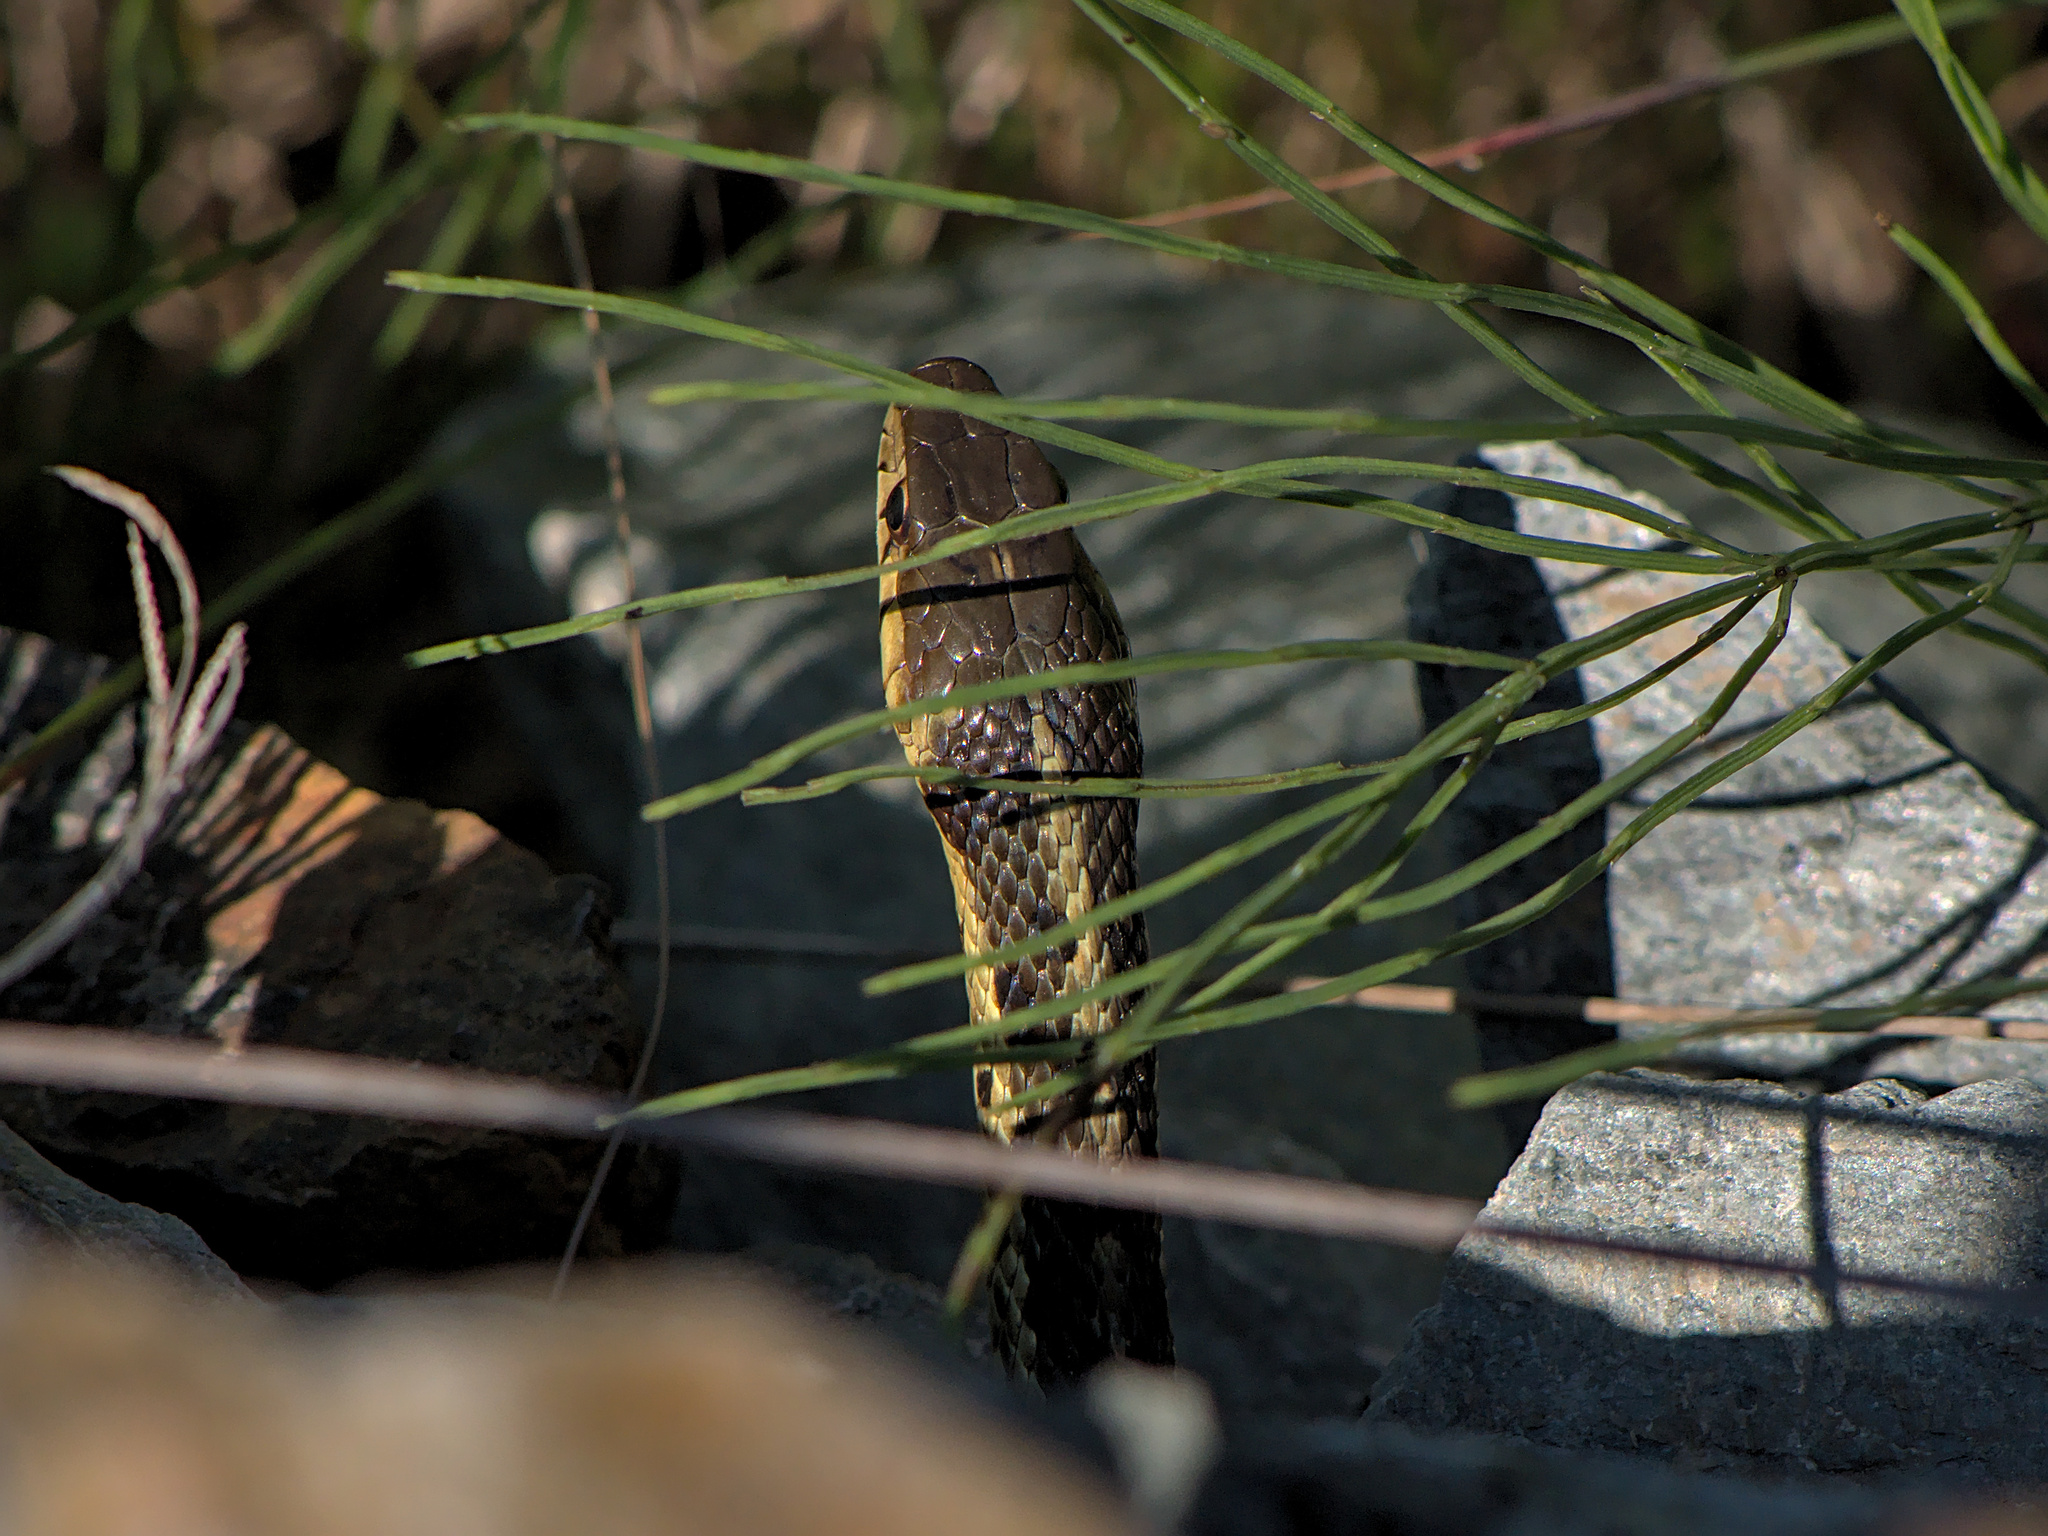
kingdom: Animalia
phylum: Chordata
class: Squamata
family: Colubridae
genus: Thamnophis
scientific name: Thamnophis sirtalis
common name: Common garter snake
